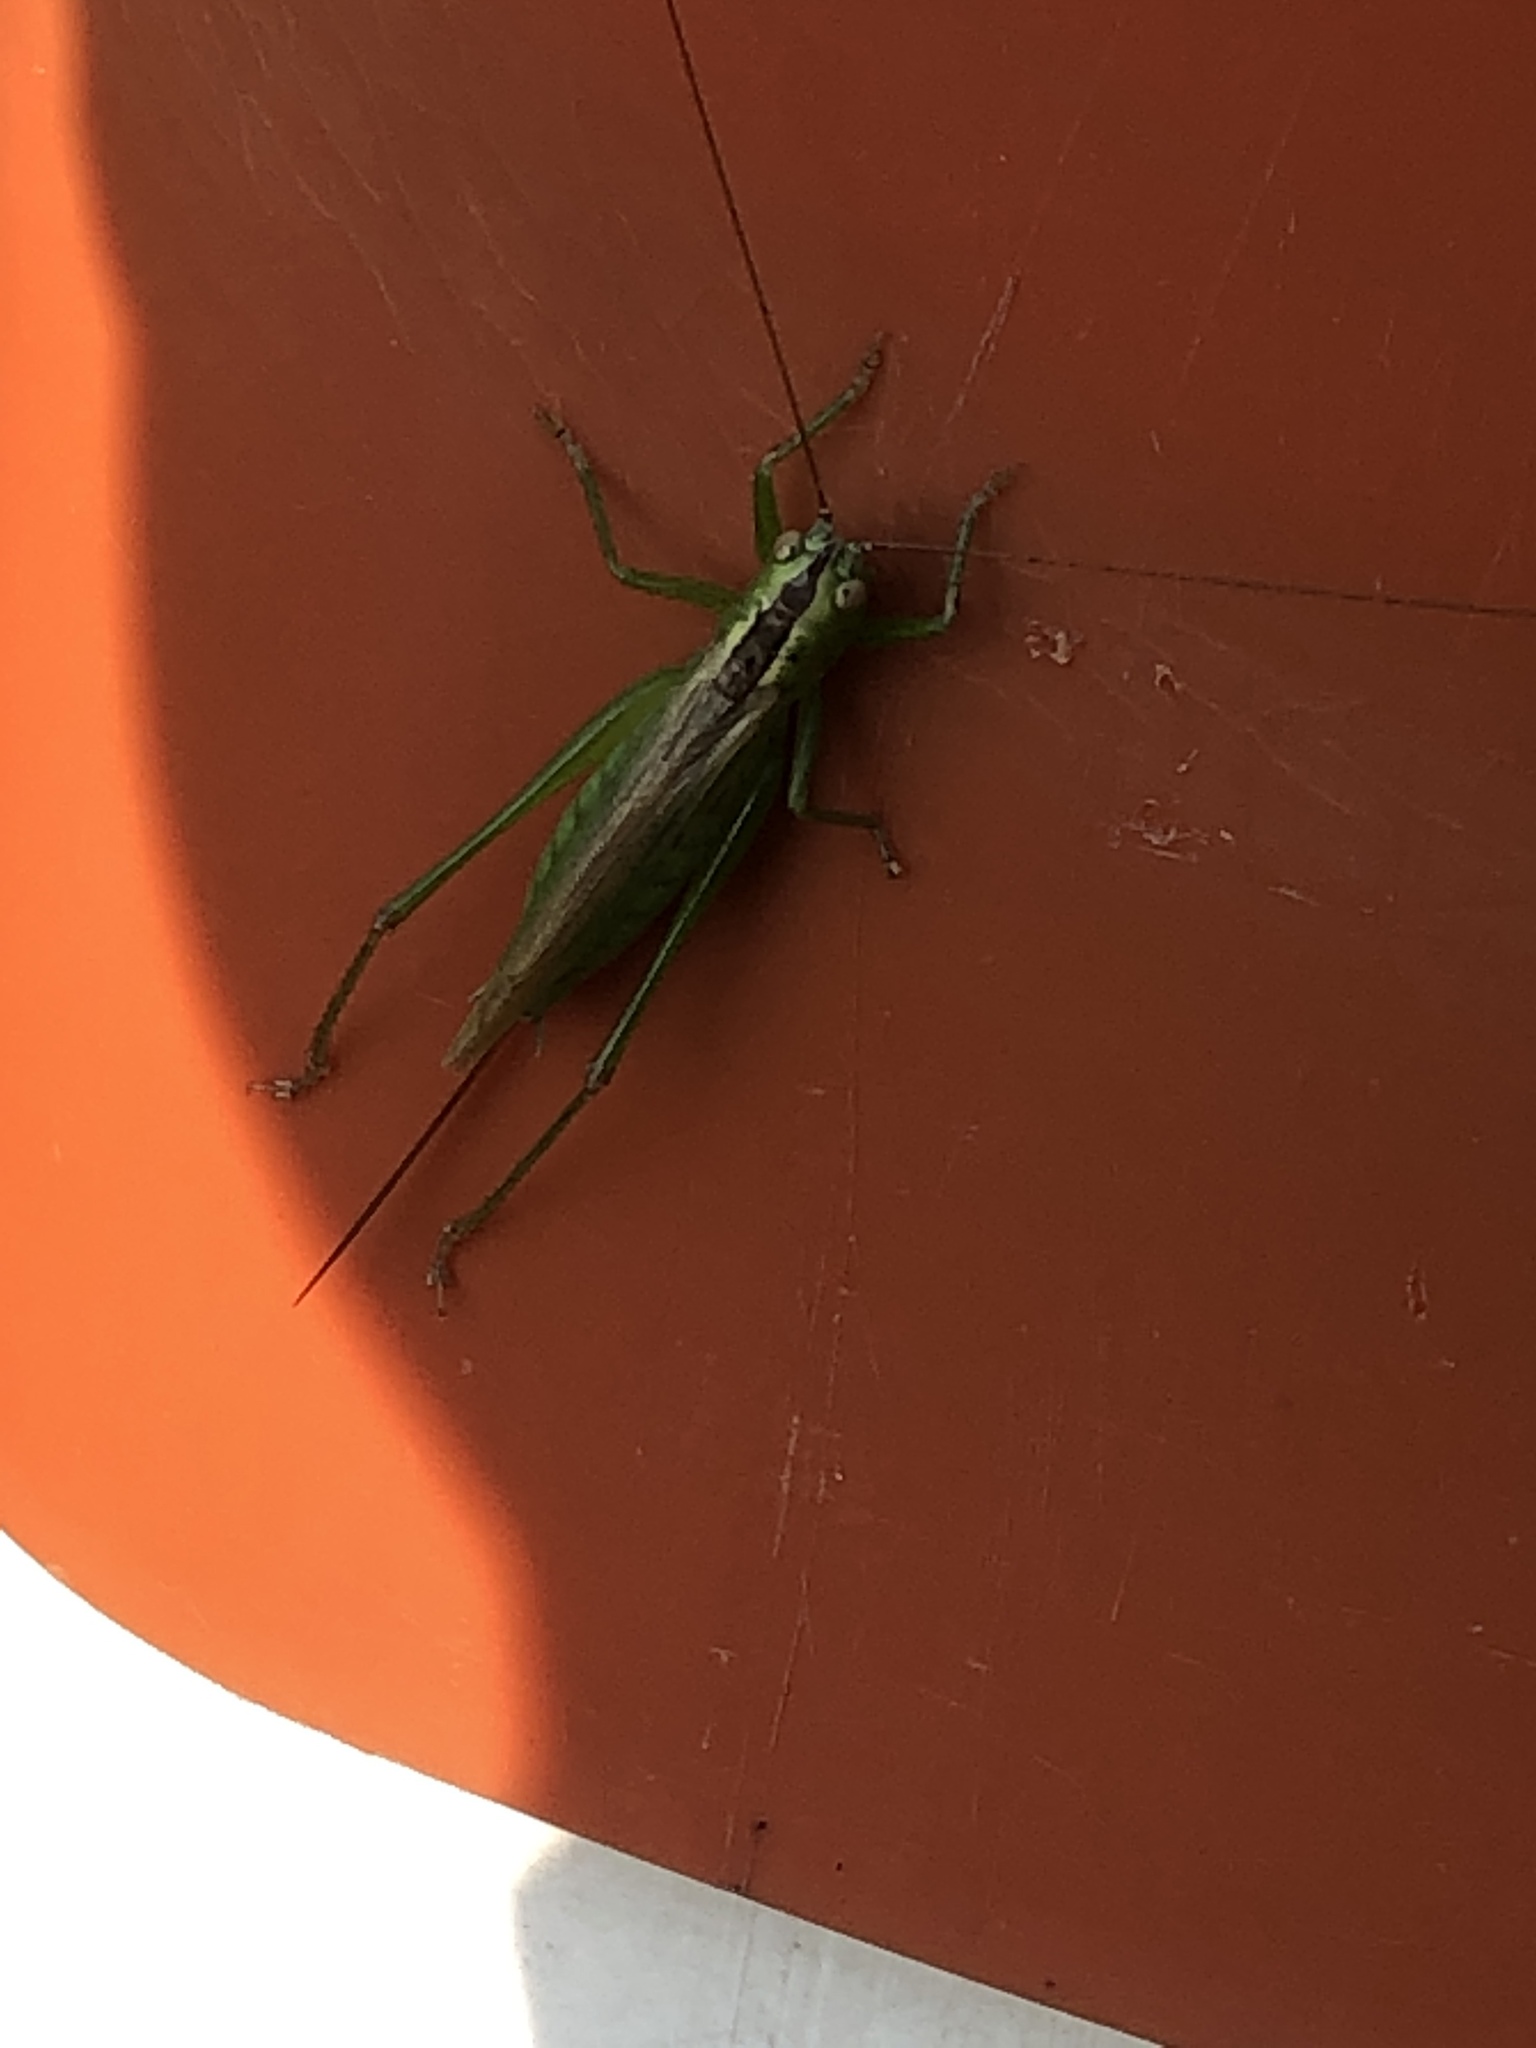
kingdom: Animalia
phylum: Arthropoda
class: Insecta
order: Orthoptera
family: Tettigoniidae
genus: Conocephalus
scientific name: Conocephalus fuscus
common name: Long-winged conehead
